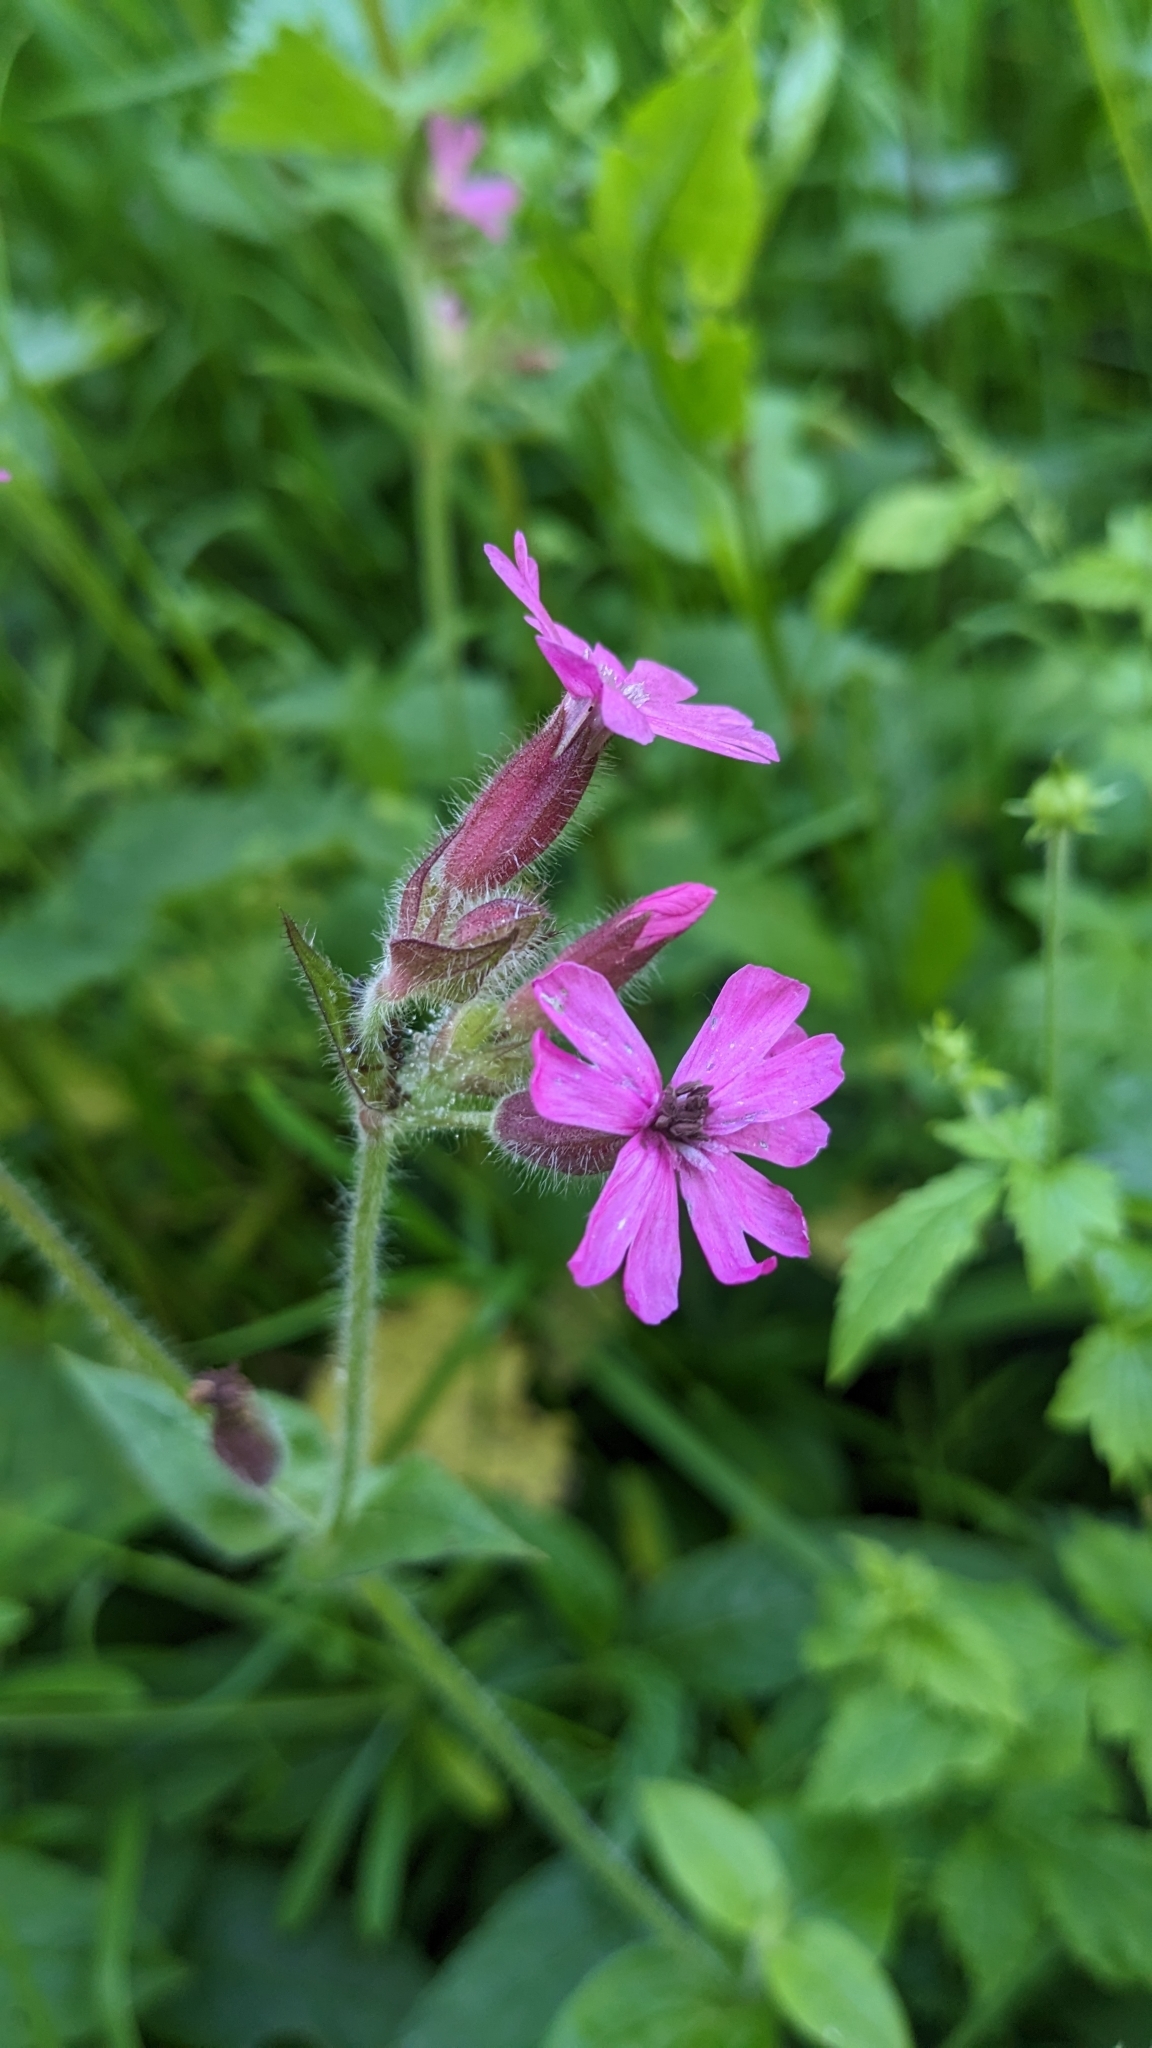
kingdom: Fungi
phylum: Basidiomycota
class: Microbotryomycetes
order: Microbotryales
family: Microbotryaceae
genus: Microbotryum
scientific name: Microbotryum silenes-dioicae
